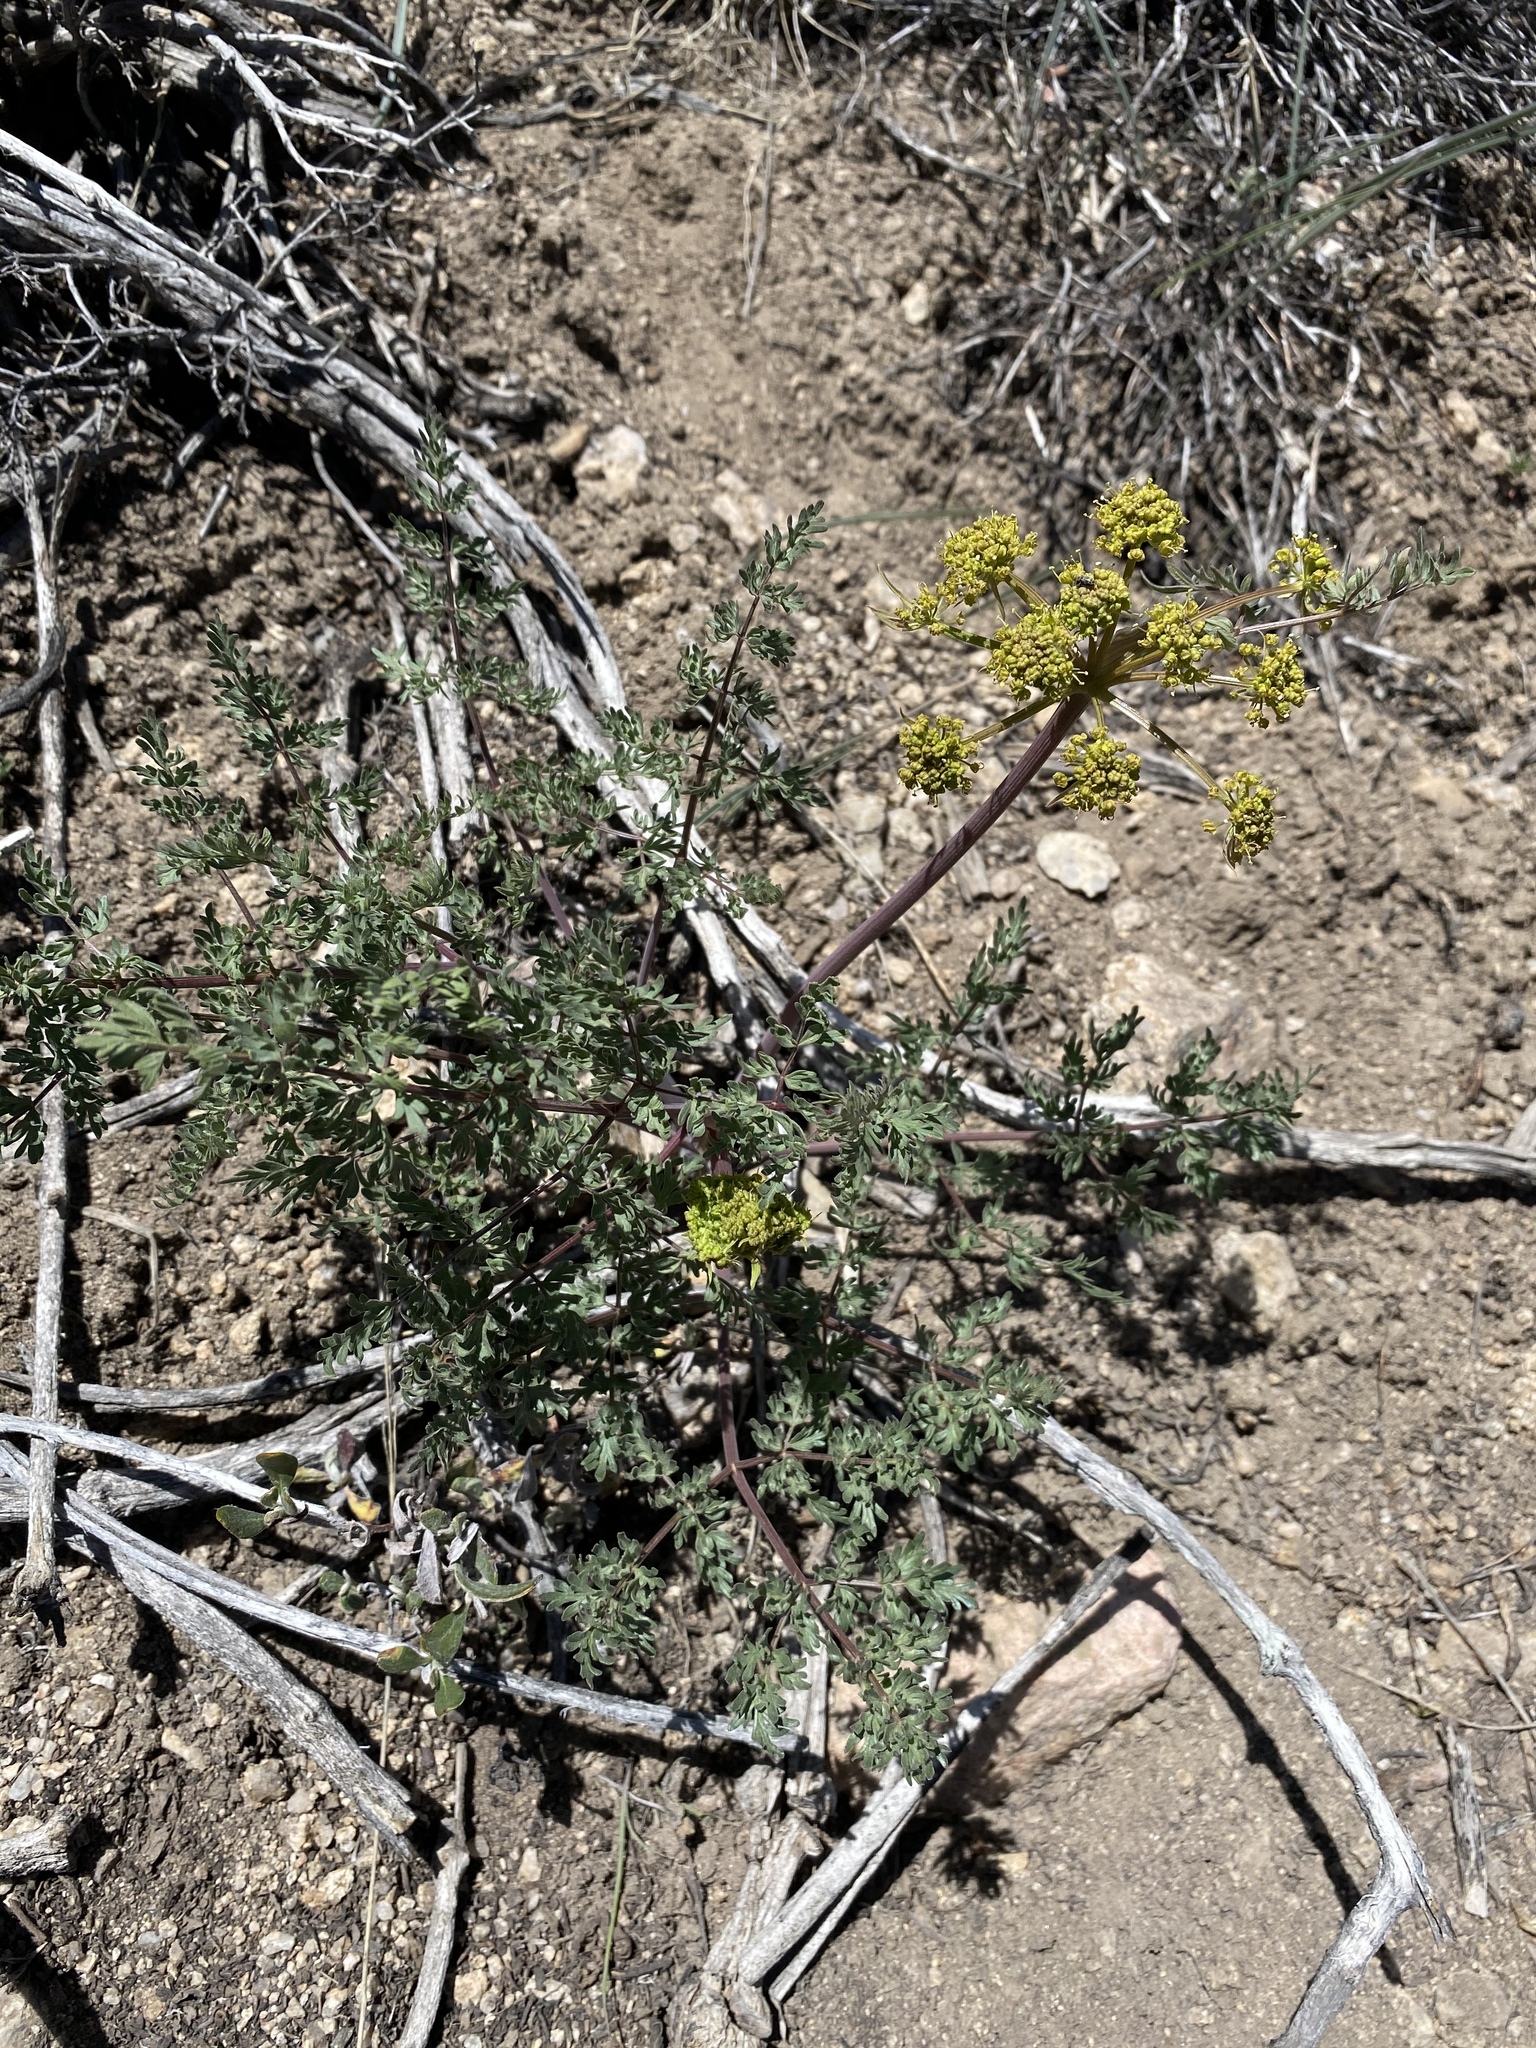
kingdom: Plantae
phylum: Tracheophyta
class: Magnoliopsida
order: Apiales
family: Apiaceae
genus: Lomatium
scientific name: Lomatium dissectum
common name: Lomatium
